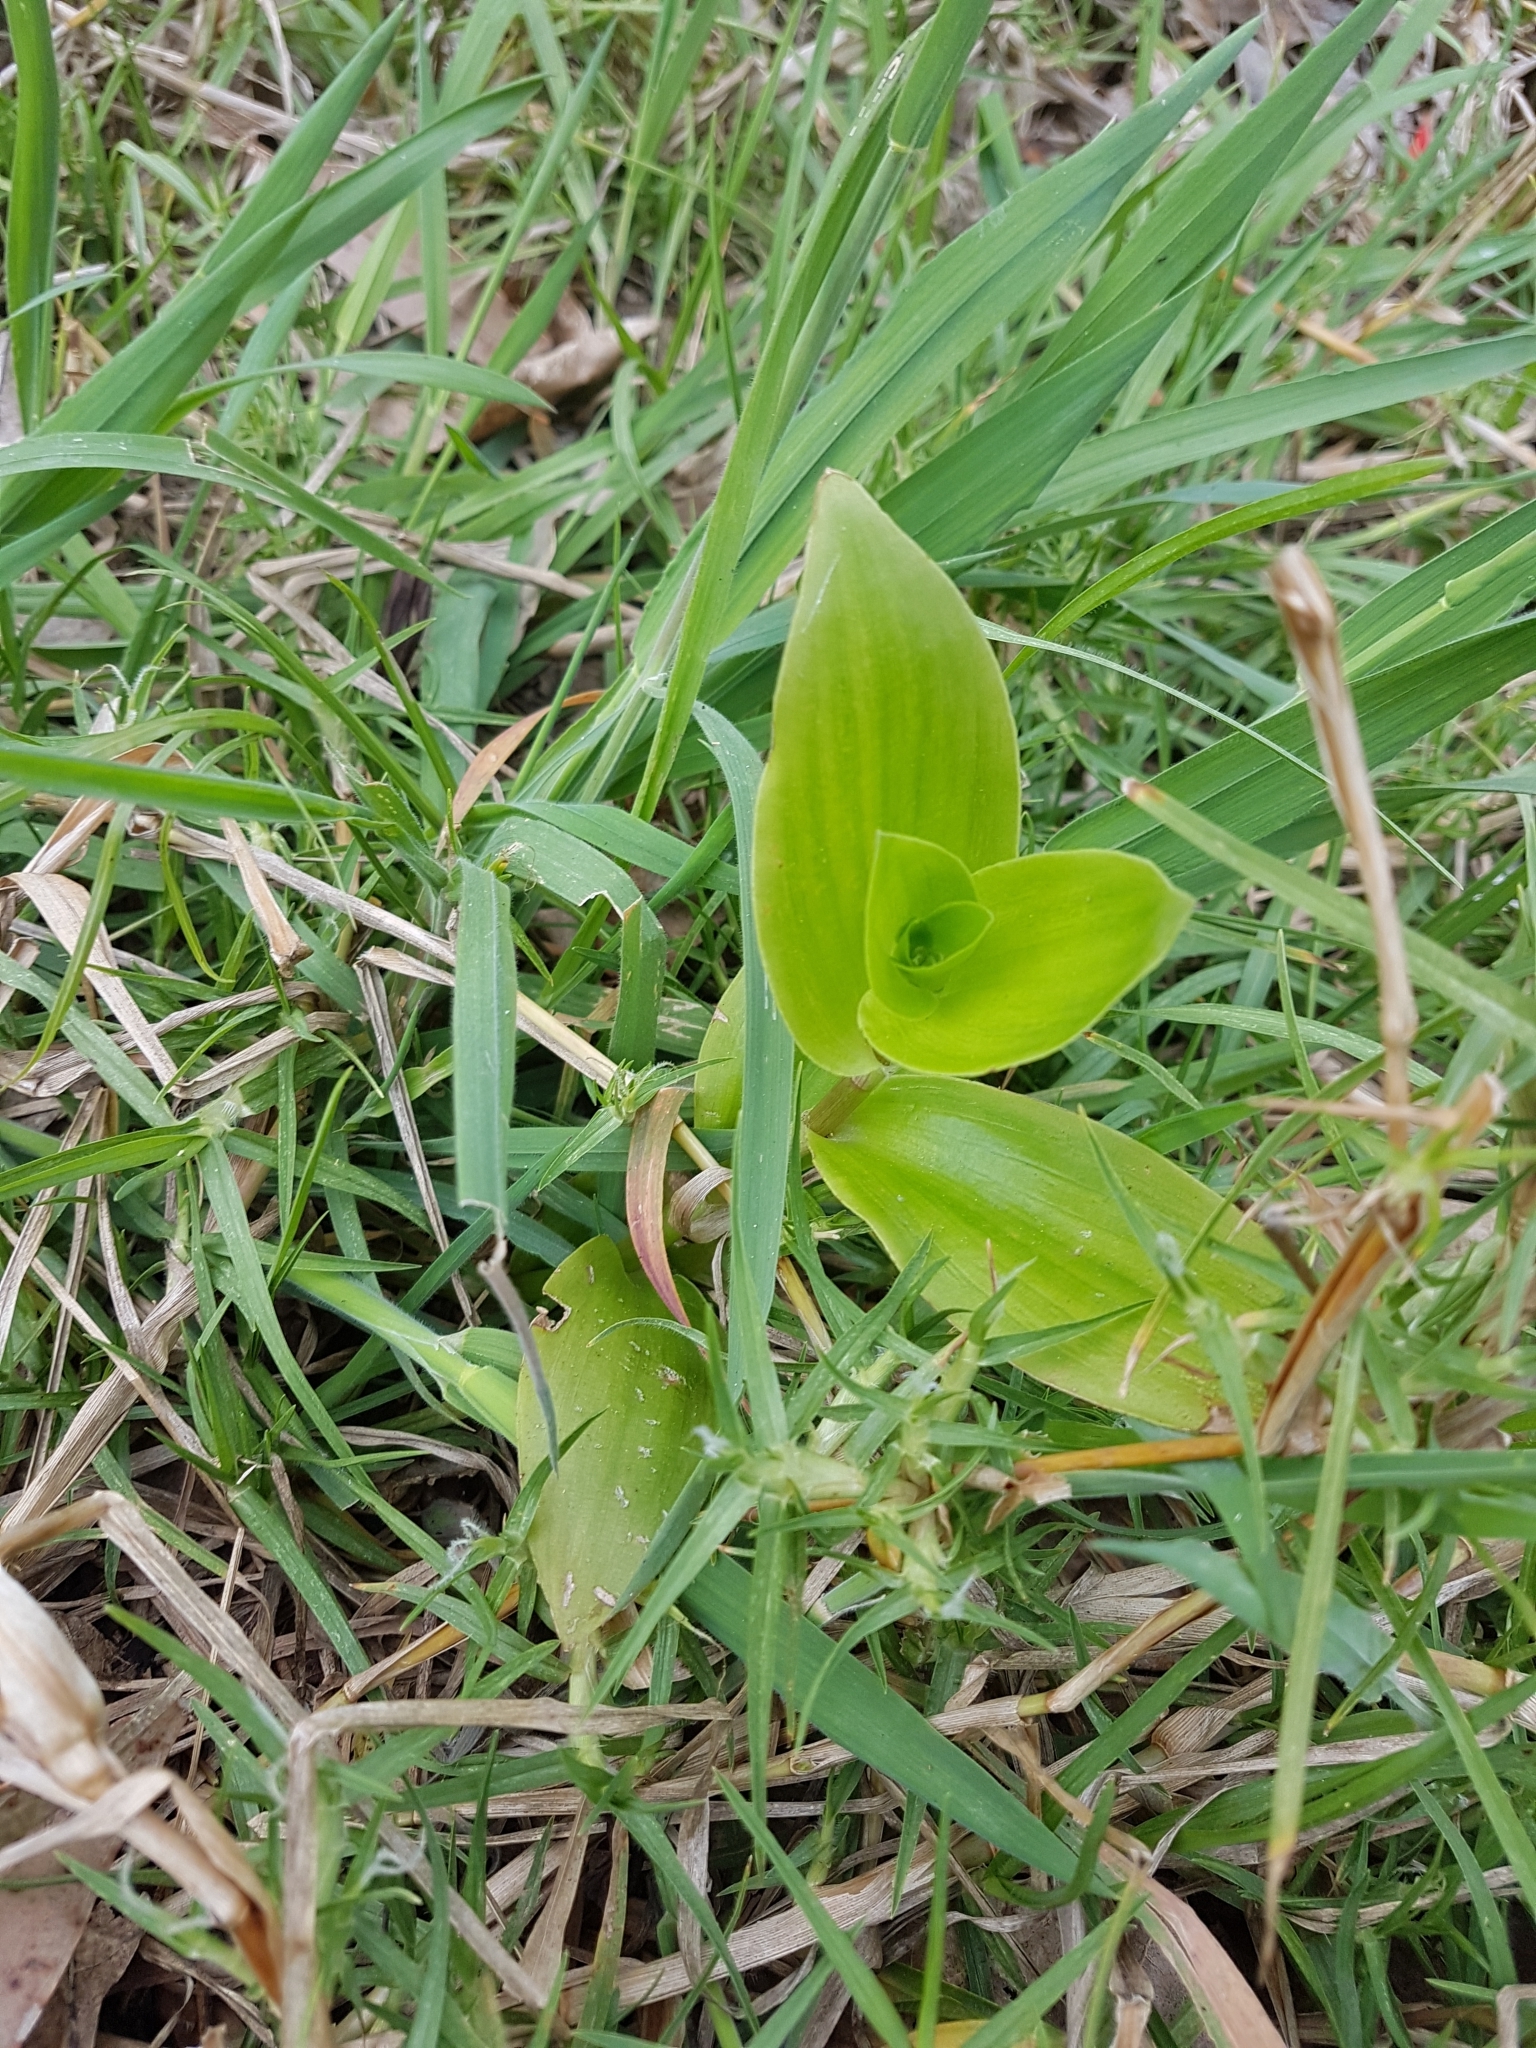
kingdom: Plantae
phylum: Tracheophyta
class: Liliopsida
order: Commelinales
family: Commelinaceae
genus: Tradescantia
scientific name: Tradescantia fluminensis
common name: Wandering-jew
